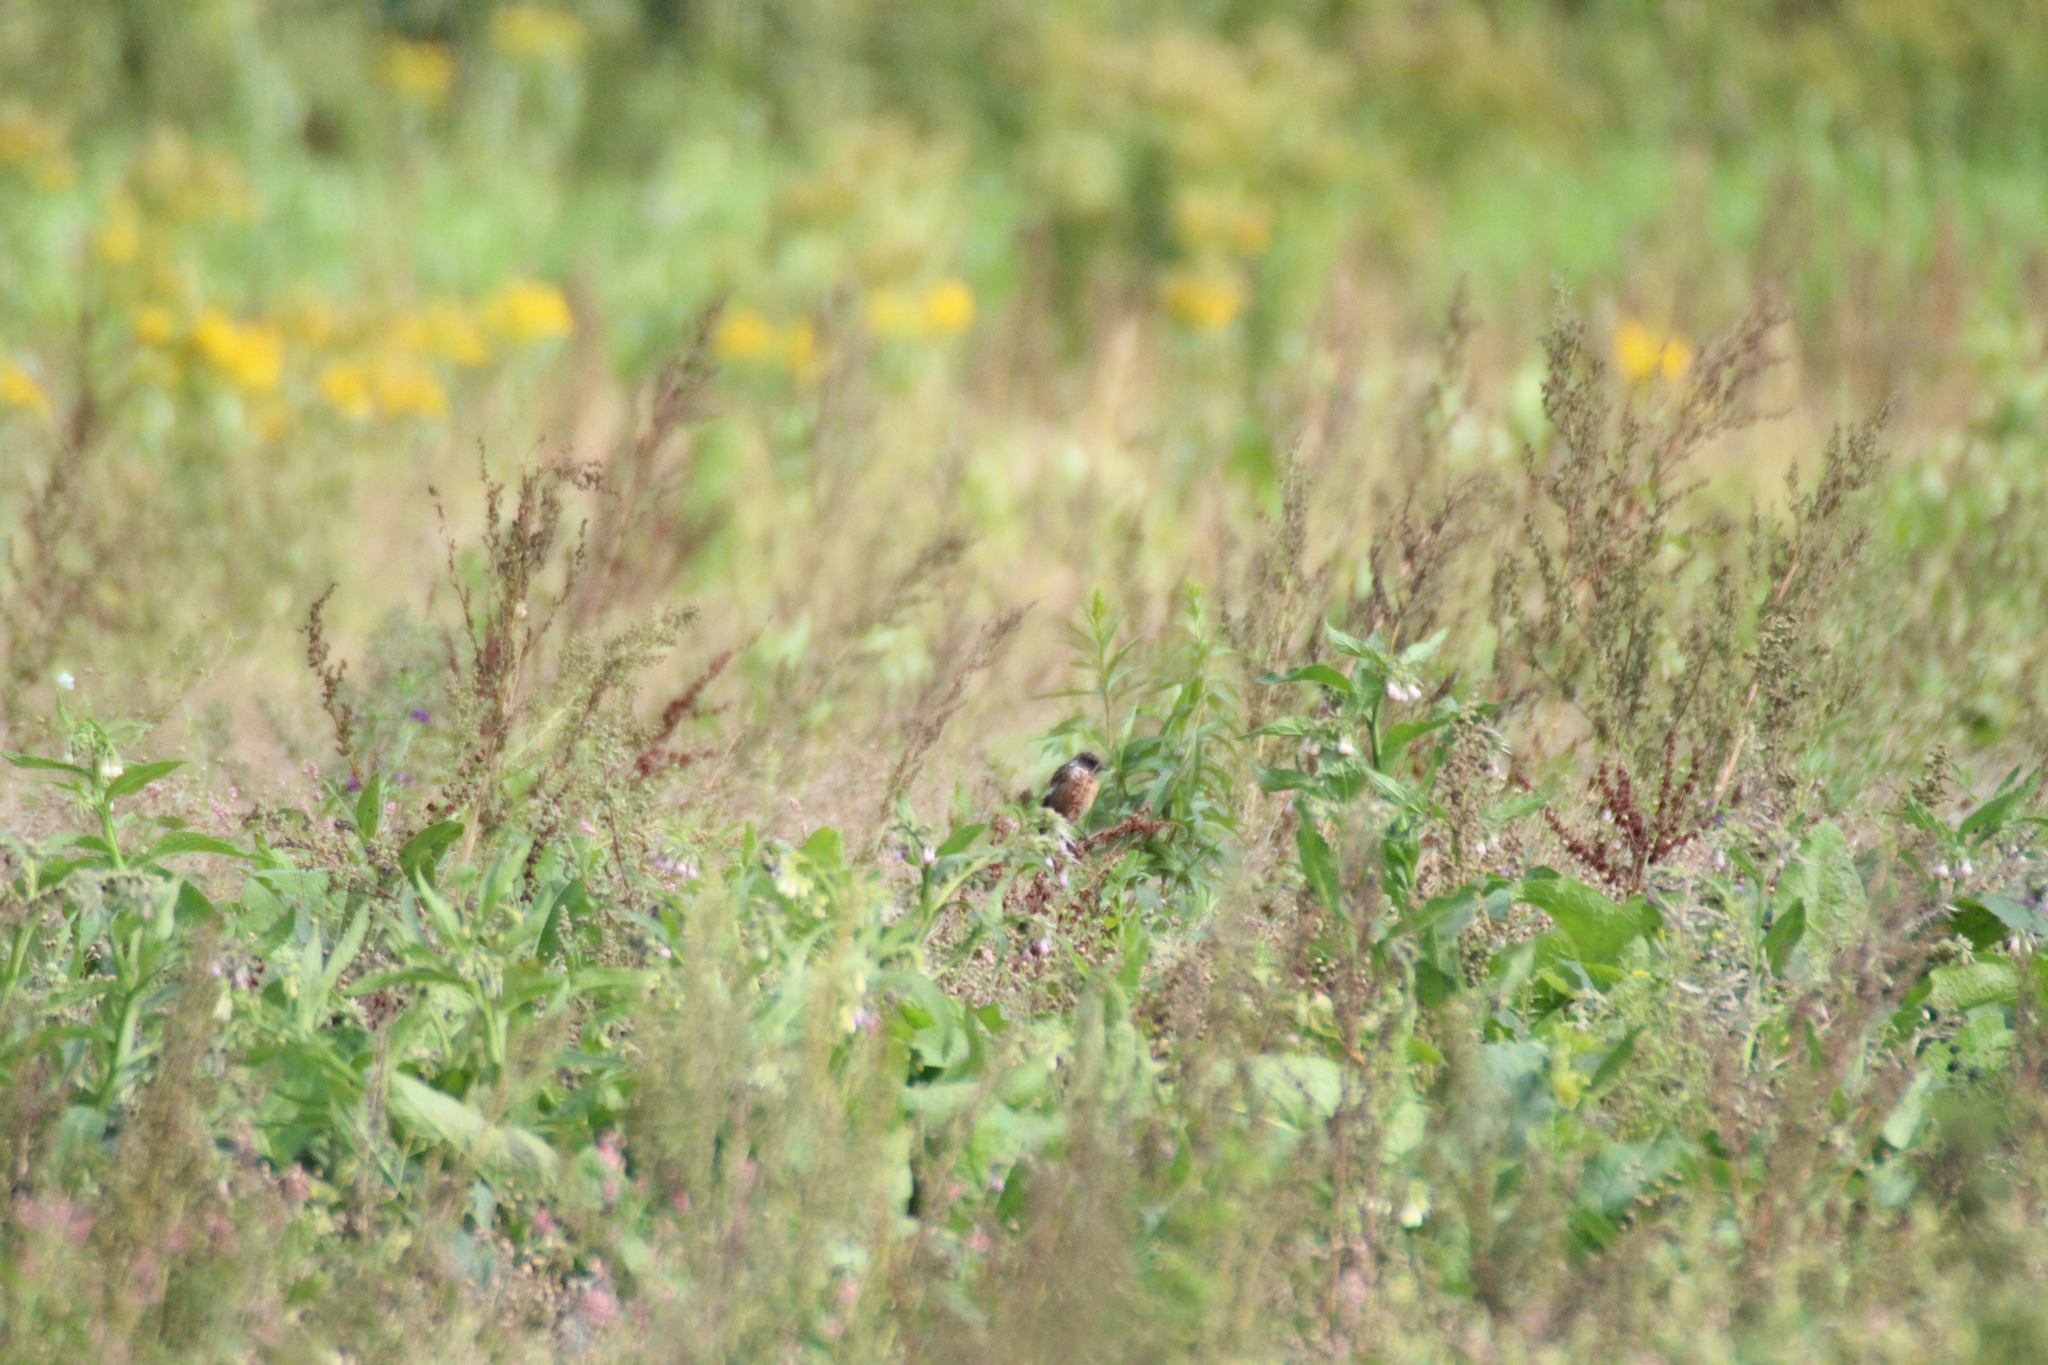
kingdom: Animalia
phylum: Chordata
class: Aves
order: Passeriformes
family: Muscicapidae
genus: Saxicola
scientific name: Saxicola rubicola
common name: European stonechat
